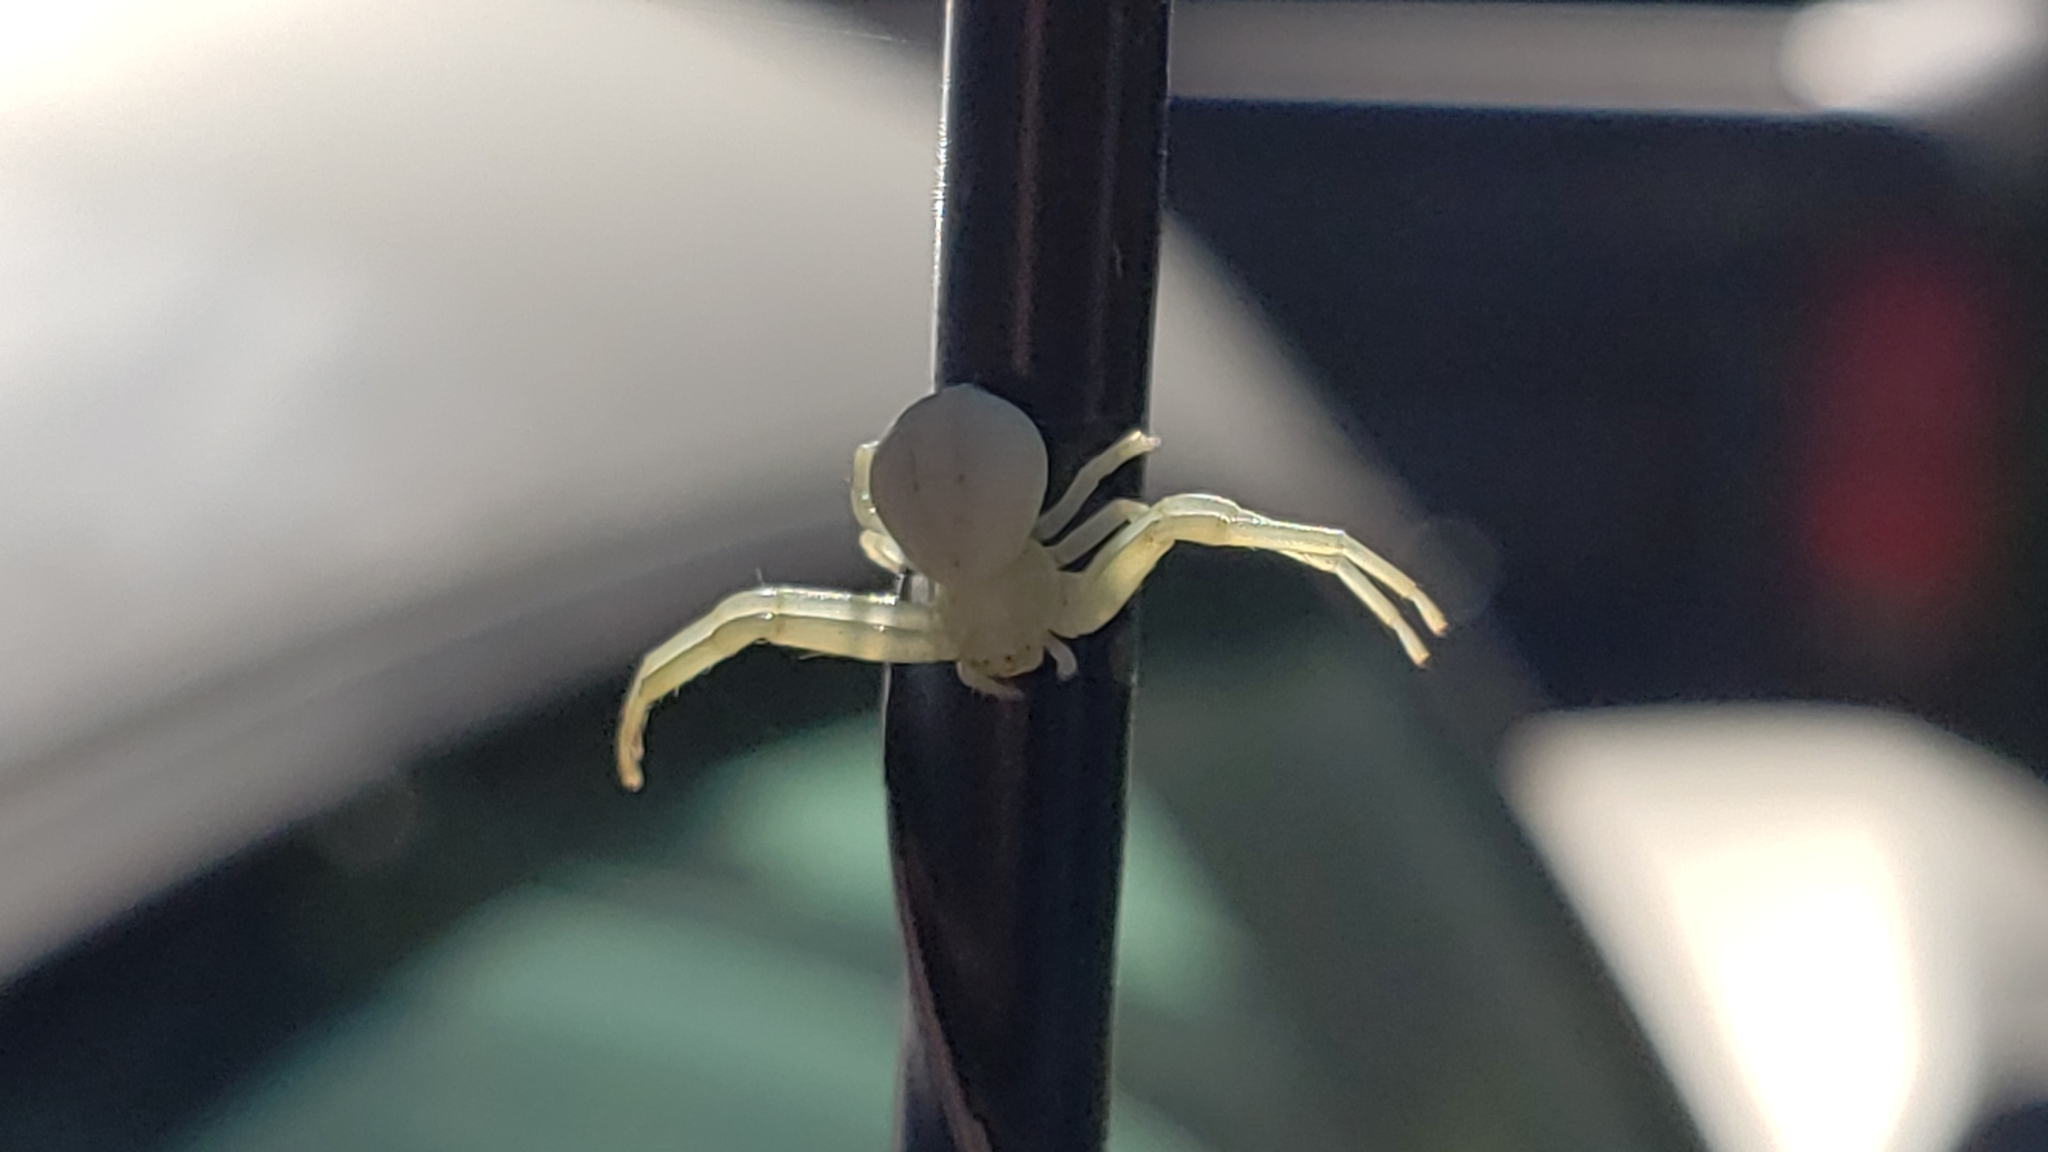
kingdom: Animalia
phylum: Arthropoda
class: Arachnida
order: Araneae
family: Thomisidae
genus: Misumena
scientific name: Misumena vatia
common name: Goldenrod crab spider
